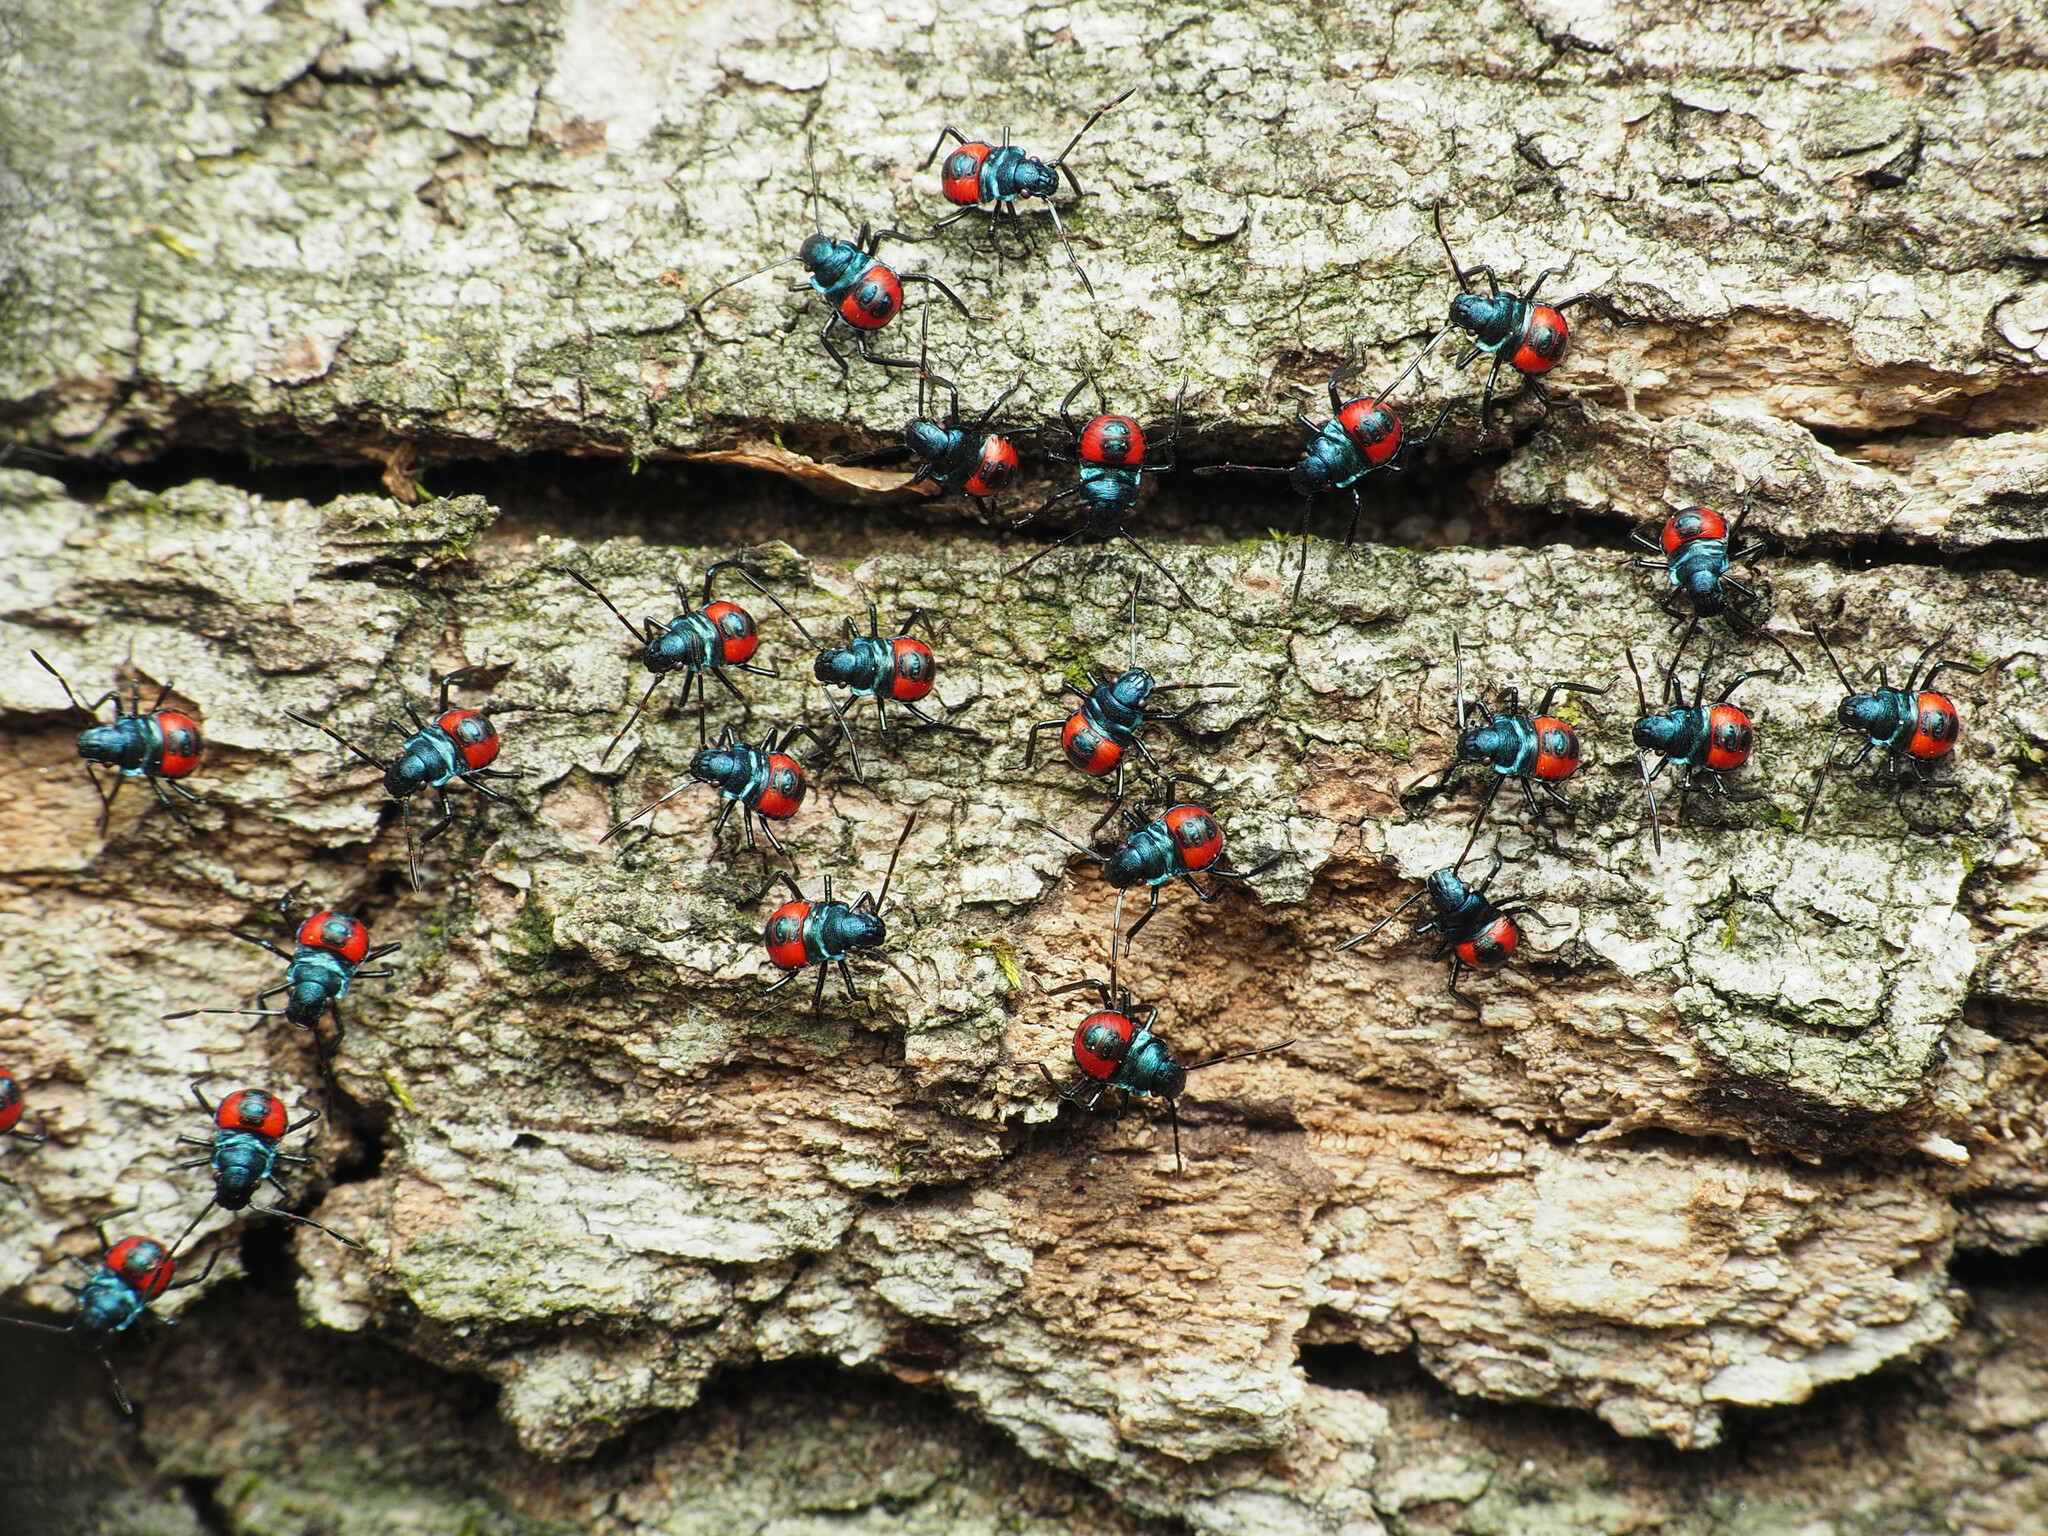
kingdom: Animalia
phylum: Arthropoda
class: Insecta
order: Hemiptera
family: Pentatomidae
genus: Euthyrhynchus
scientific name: Euthyrhynchus floridanus
